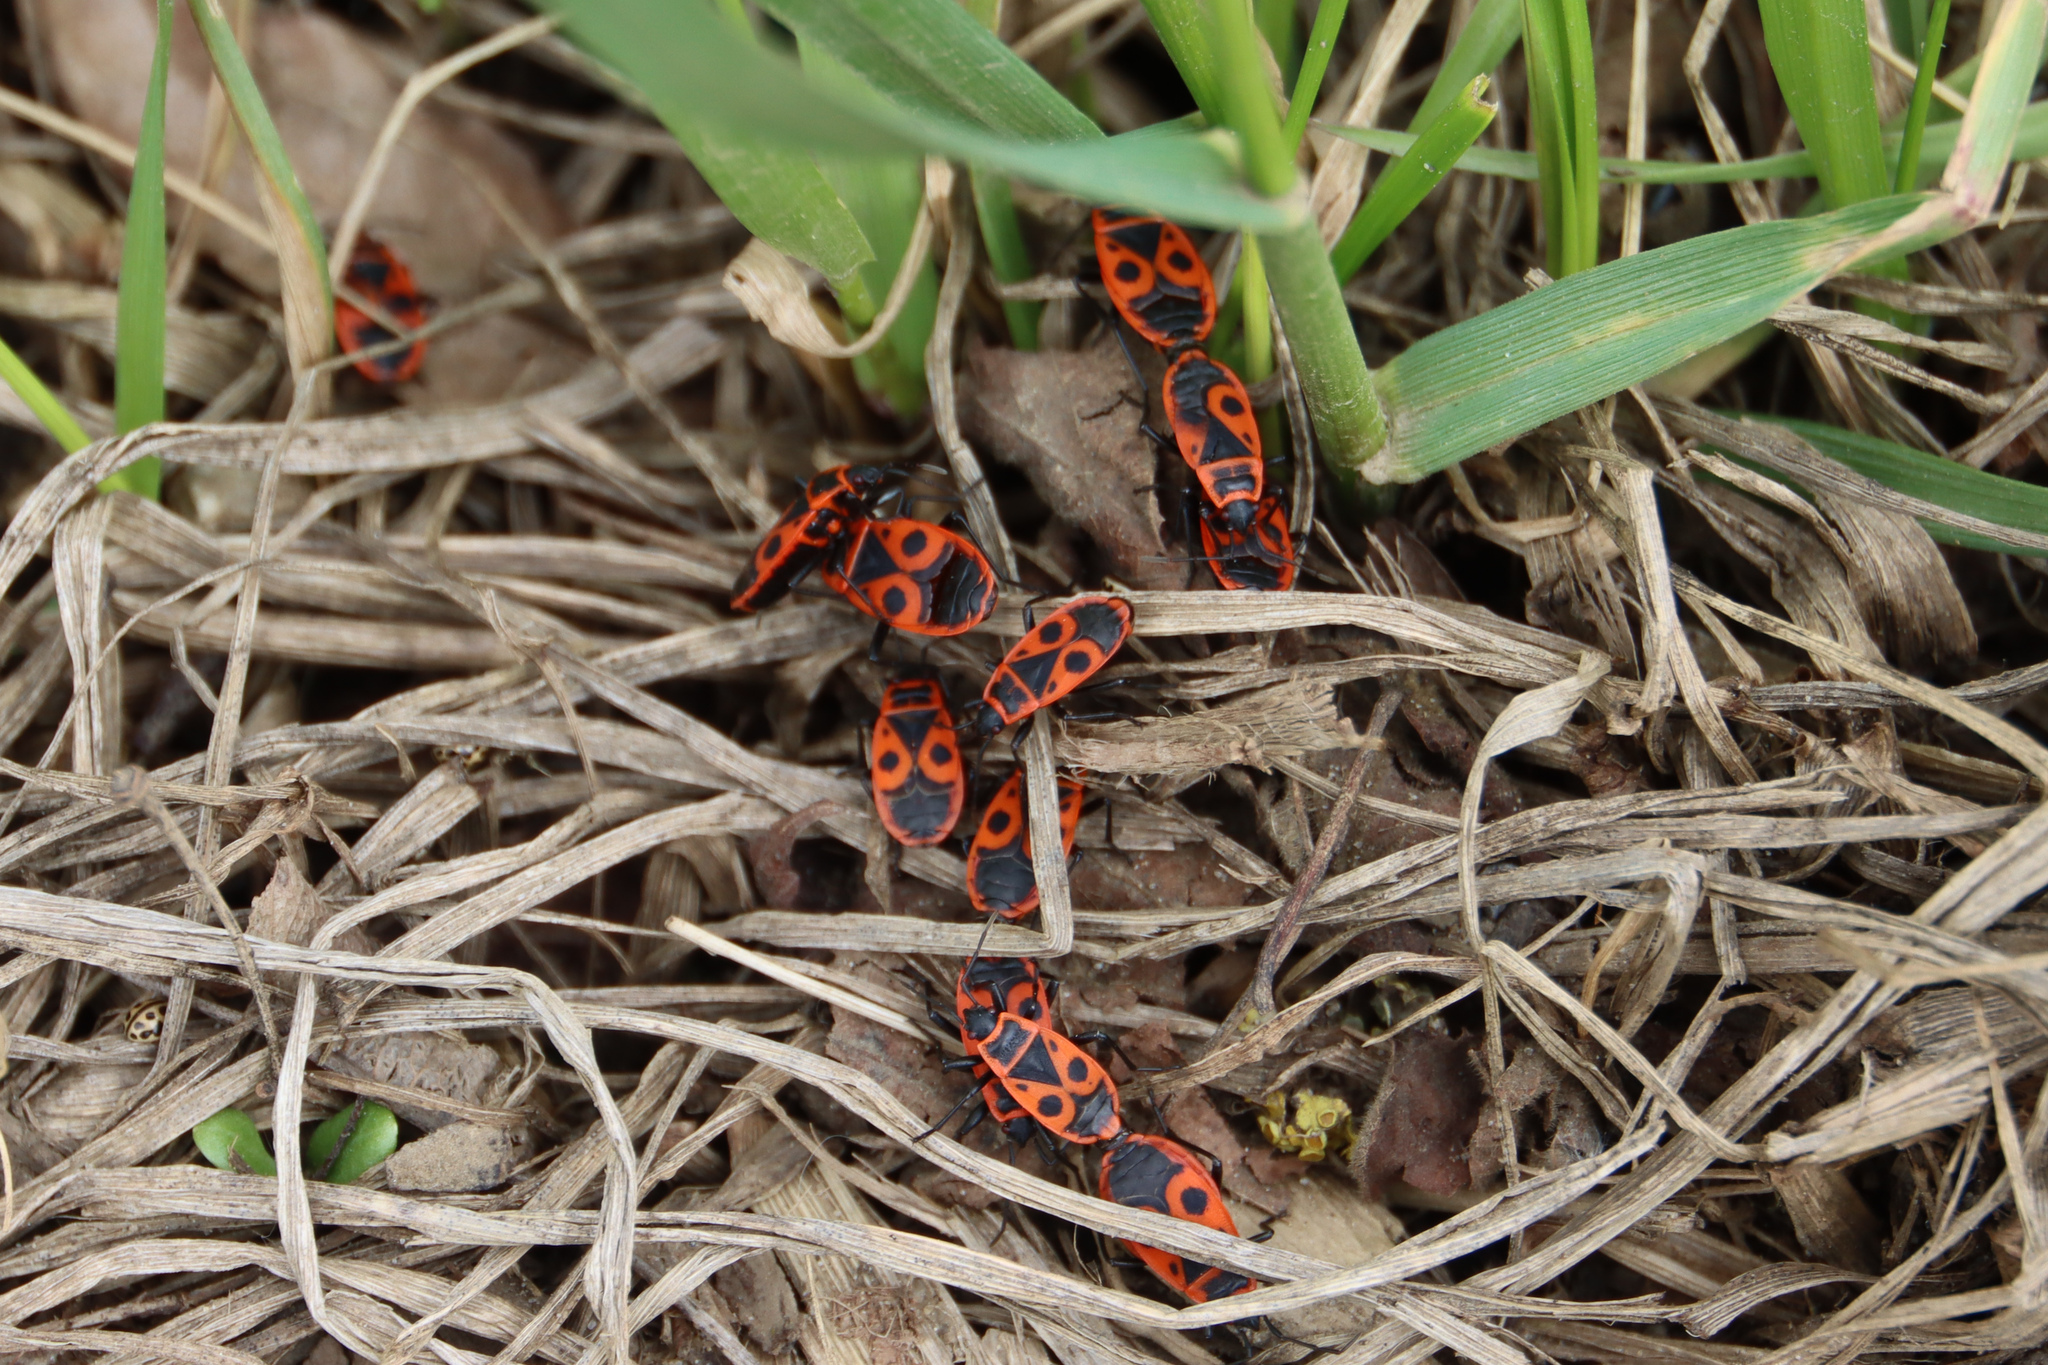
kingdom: Animalia
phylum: Arthropoda
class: Insecta
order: Hemiptera
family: Pyrrhocoridae
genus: Pyrrhocoris
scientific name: Pyrrhocoris apterus
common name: Firebug
